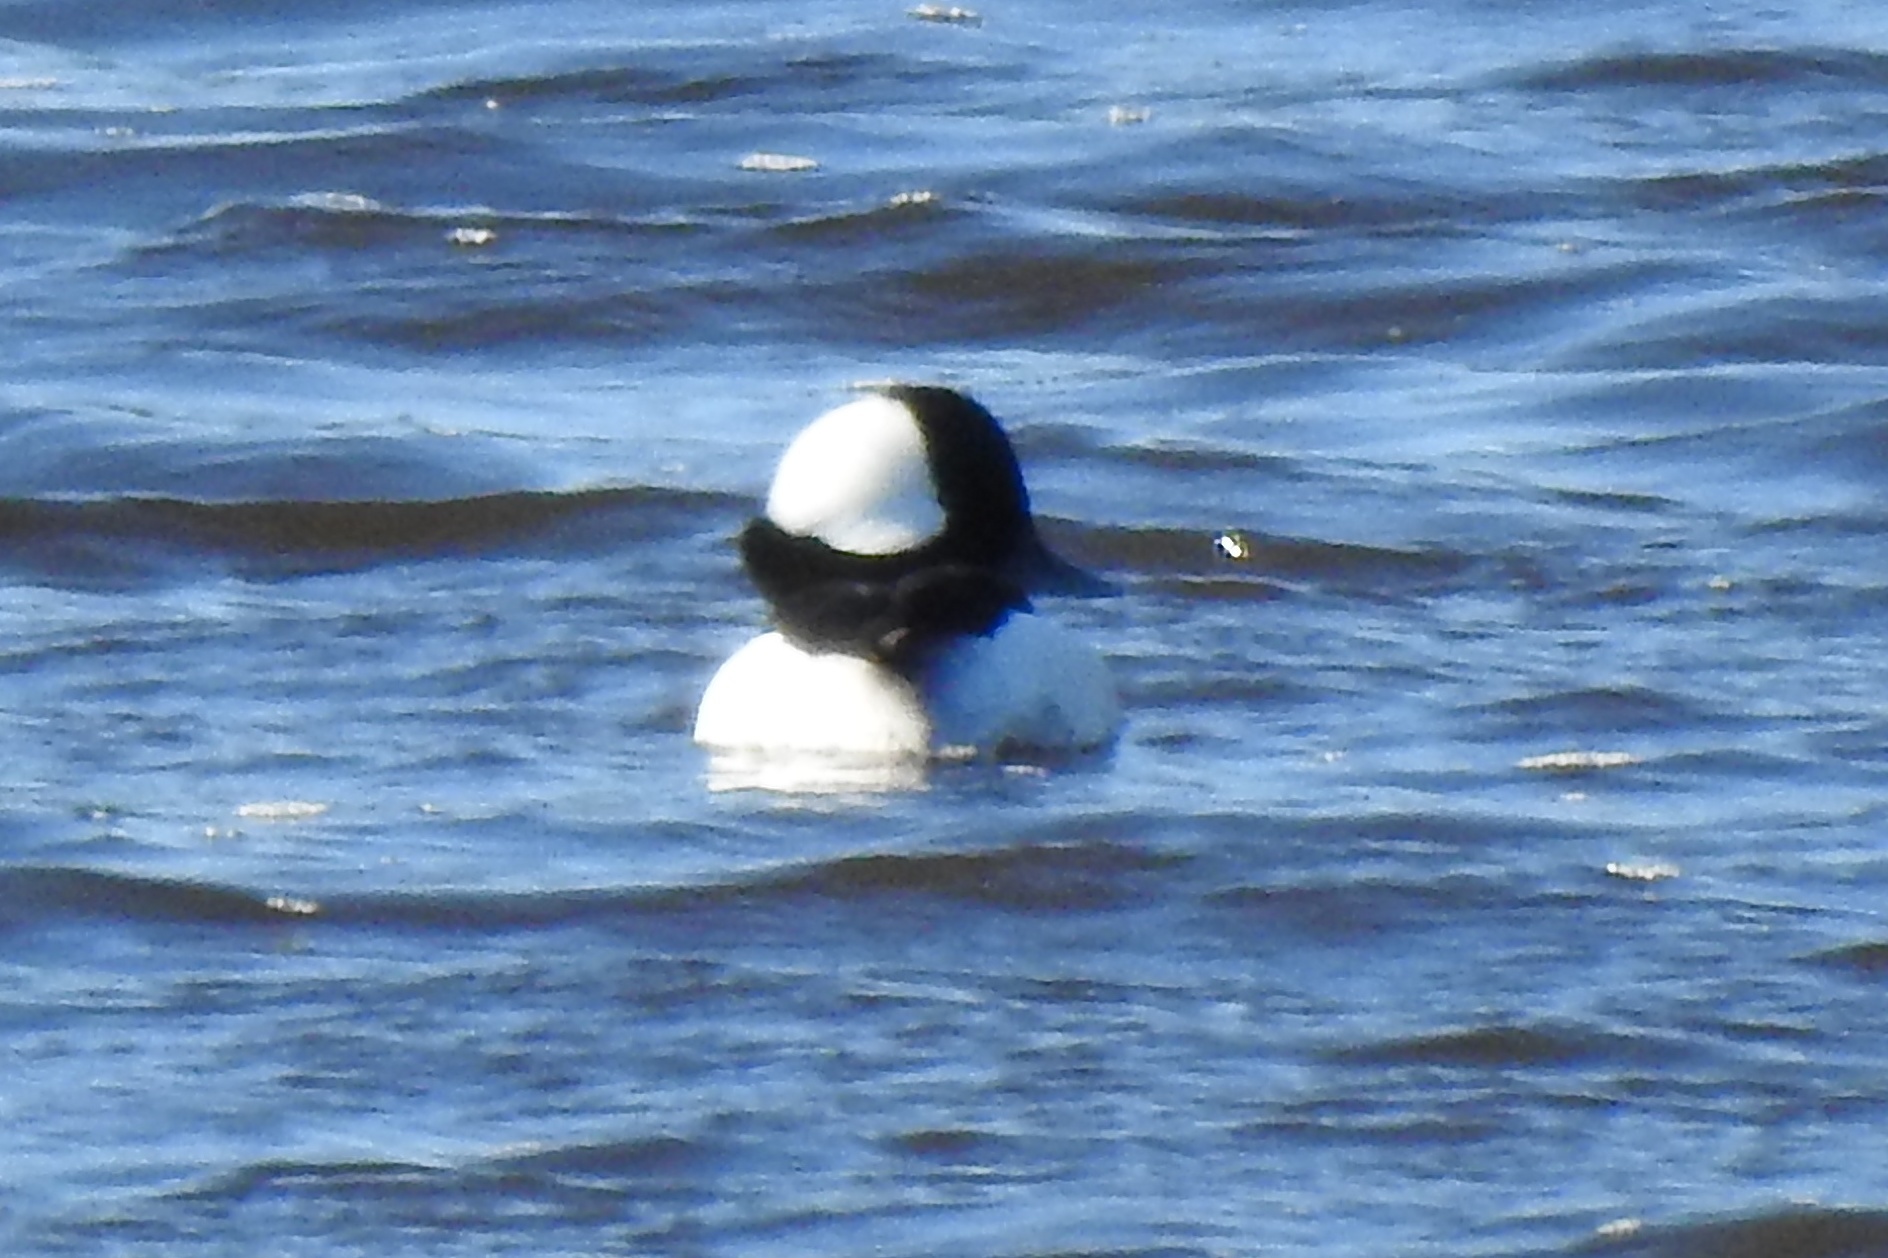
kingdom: Animalia
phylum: Chordata
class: Aves
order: Anseriformes
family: Anatidae
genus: Bucephala
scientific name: Bucephala albeola
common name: Bufflehead
